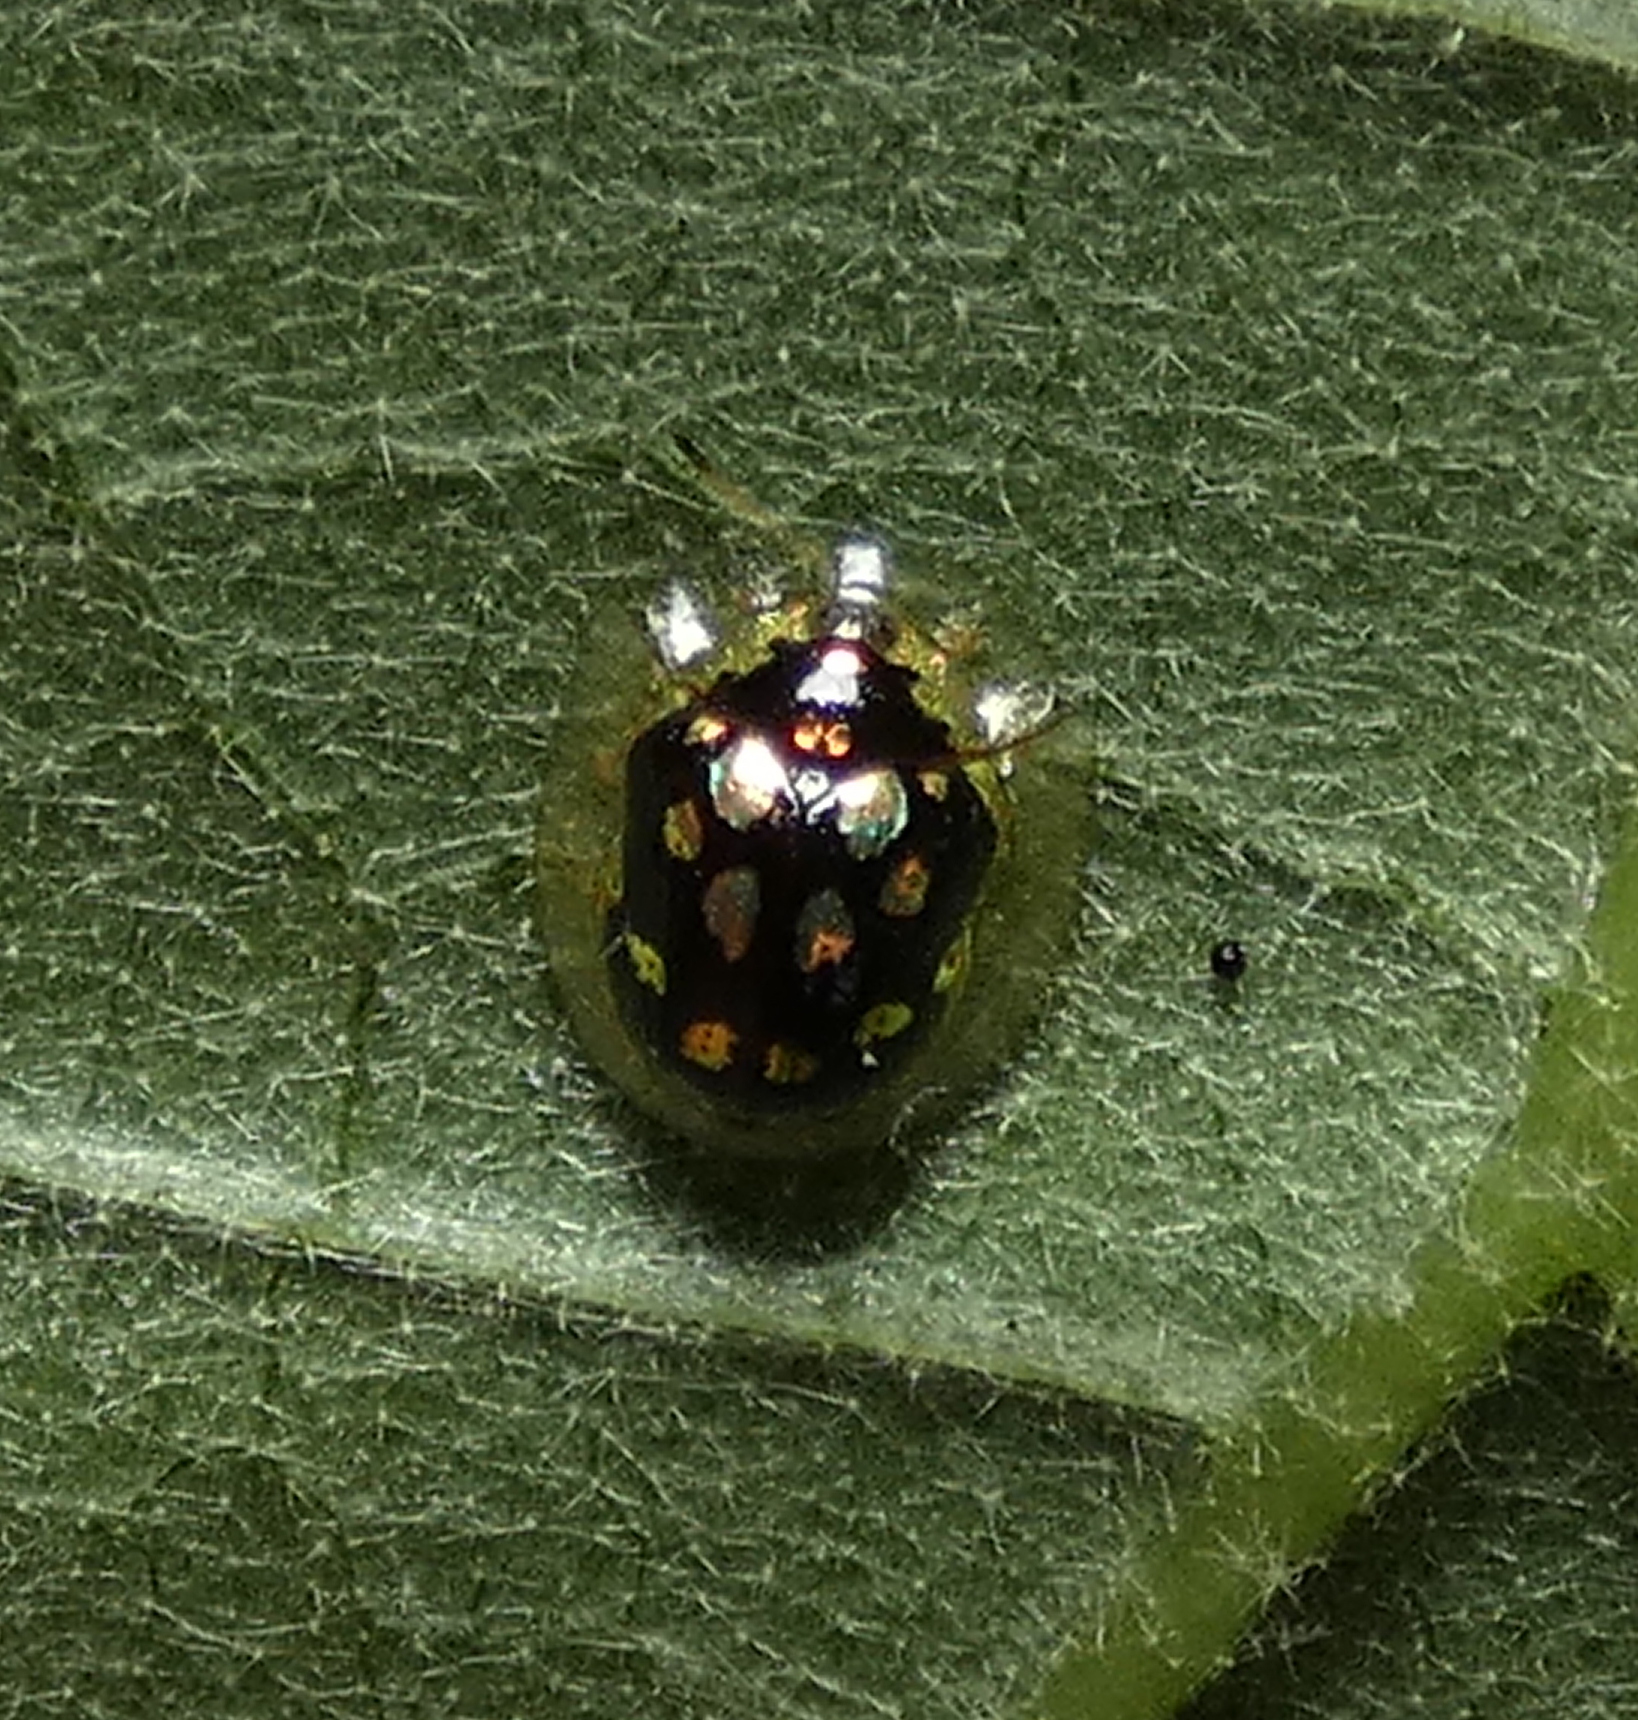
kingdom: Animalia
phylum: Arthropoda
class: Insecta
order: Coleoptera
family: Chrysomelidae
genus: Plagiometriona
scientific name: Plagiometriona microcera
